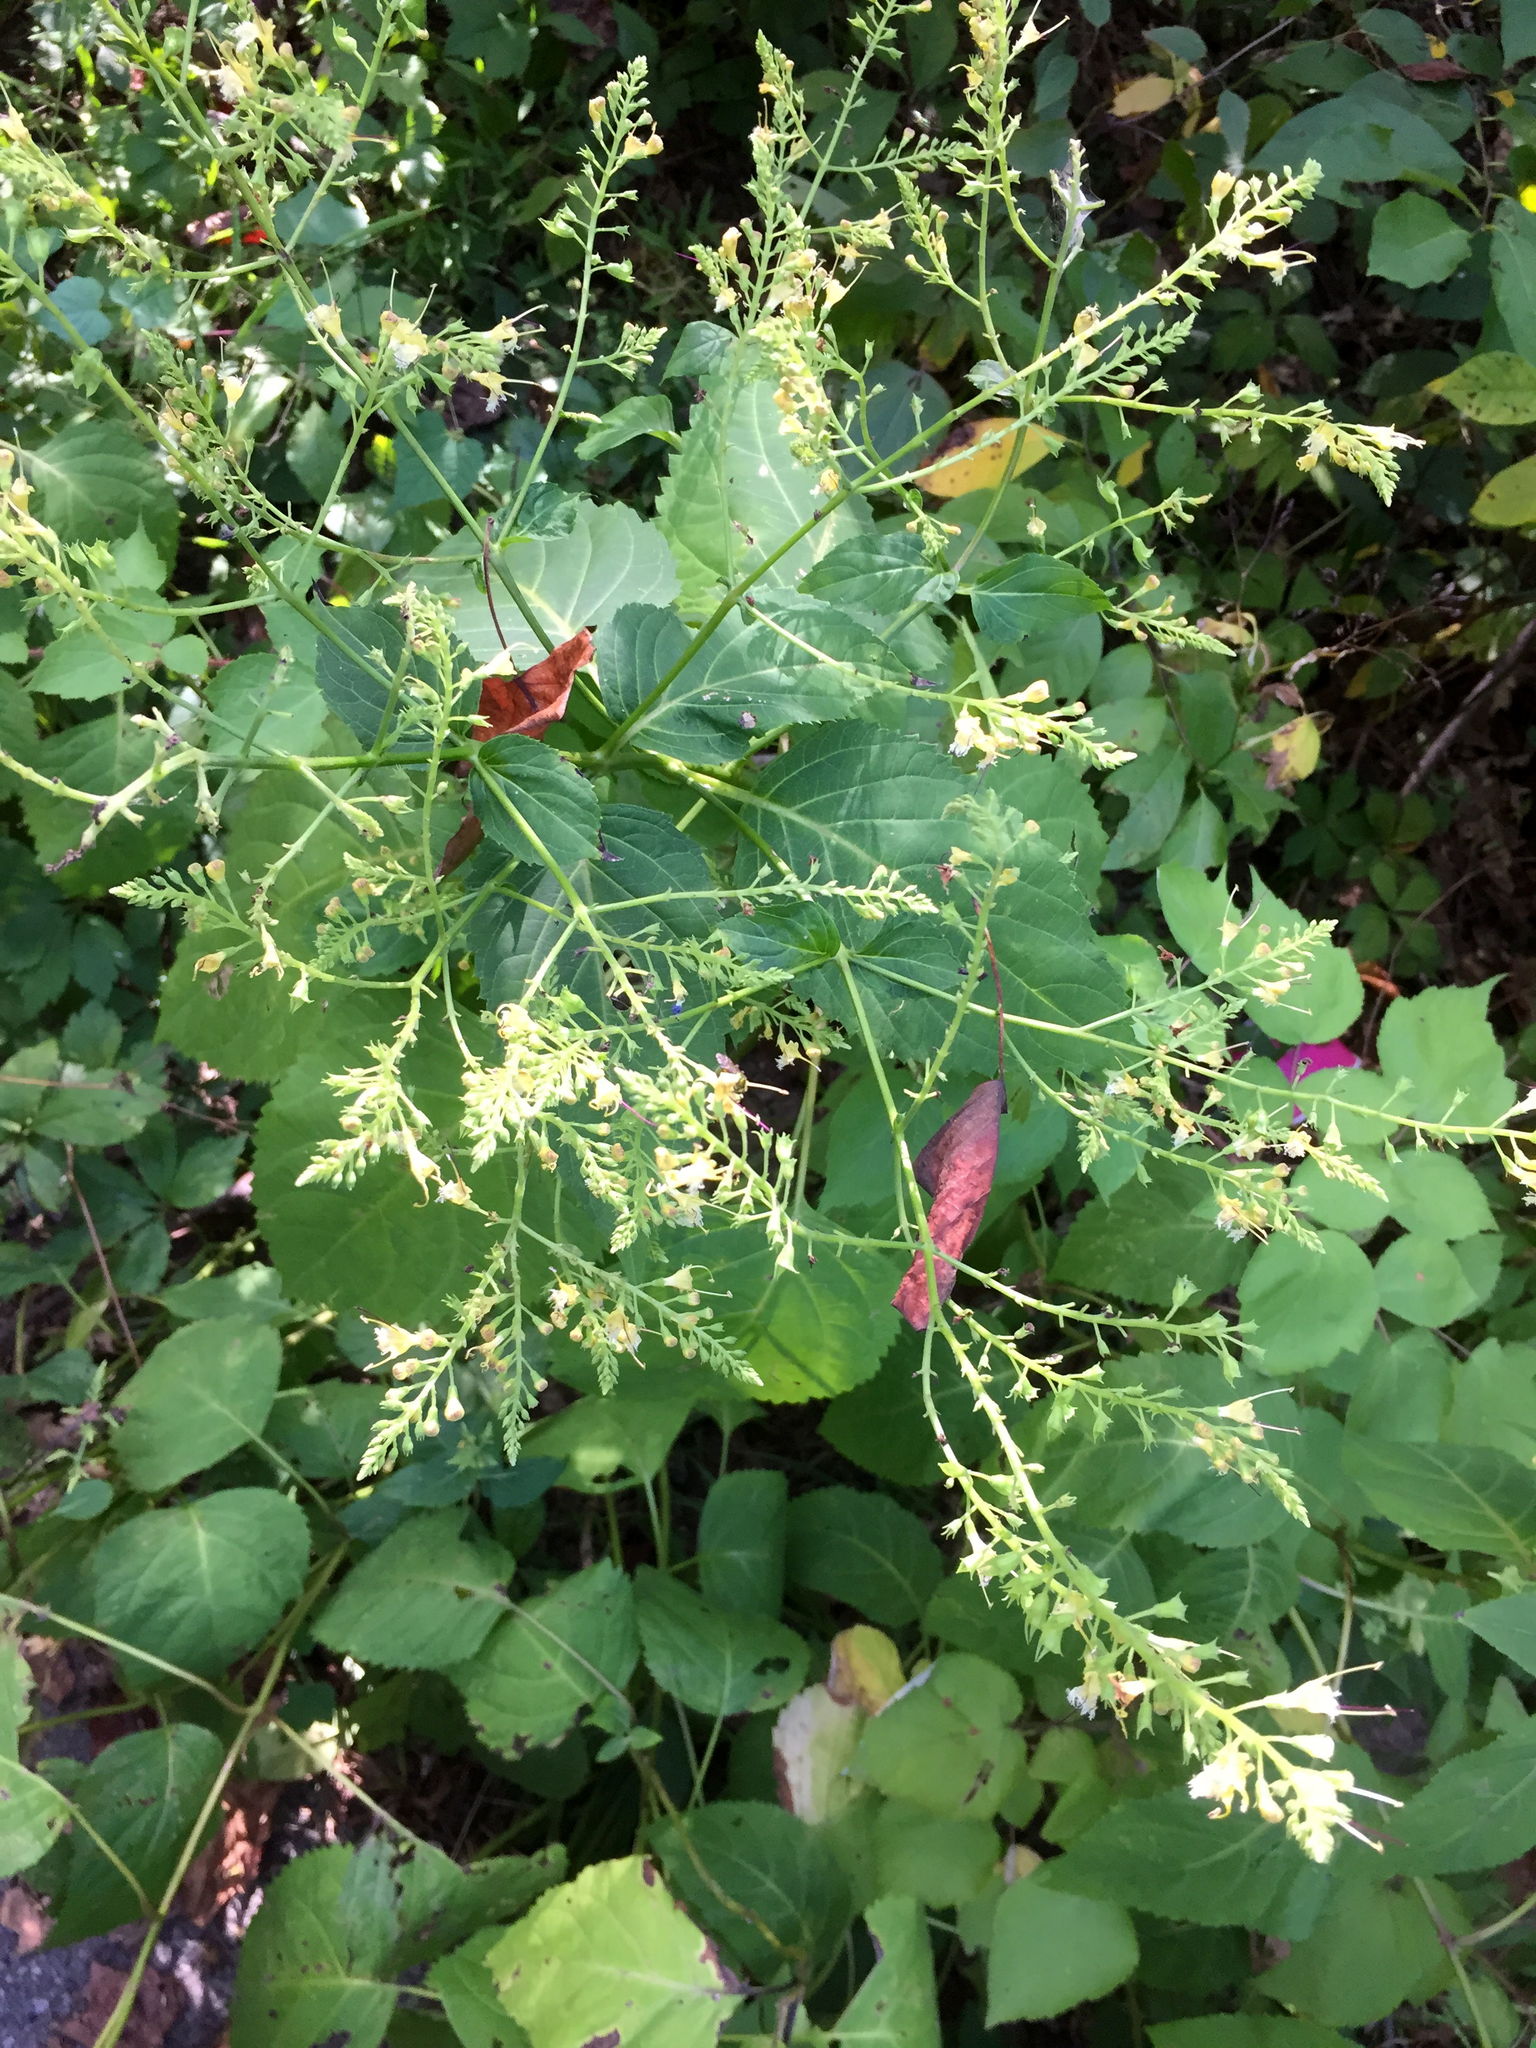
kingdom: Plantae
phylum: Tracheophyta
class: Magnoliopsida
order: Lamiales
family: Lamiaceae
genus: Collinsonia
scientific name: Collinsonia canadensis
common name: Northern horsebalm
